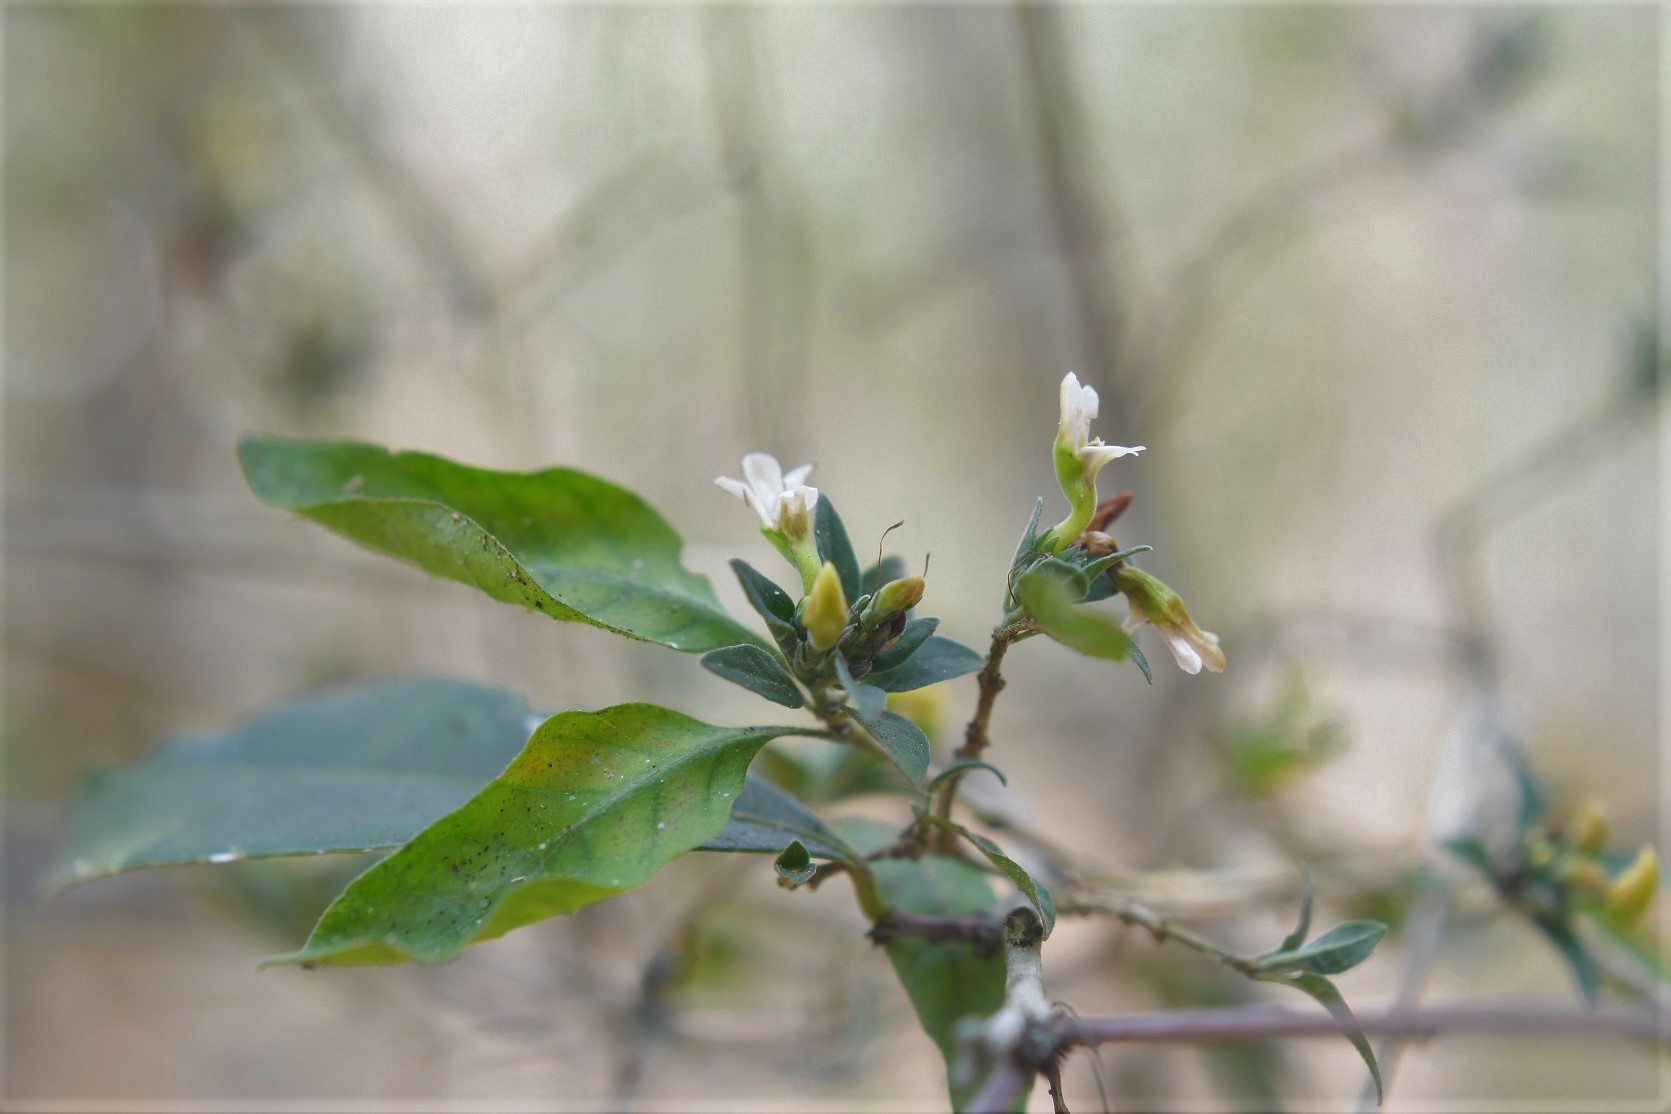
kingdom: Plantae
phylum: Tracheophyta
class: Magnoliopsida
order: Lamiales
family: Acanthaceae
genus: Holographis
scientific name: Holographis parayana
